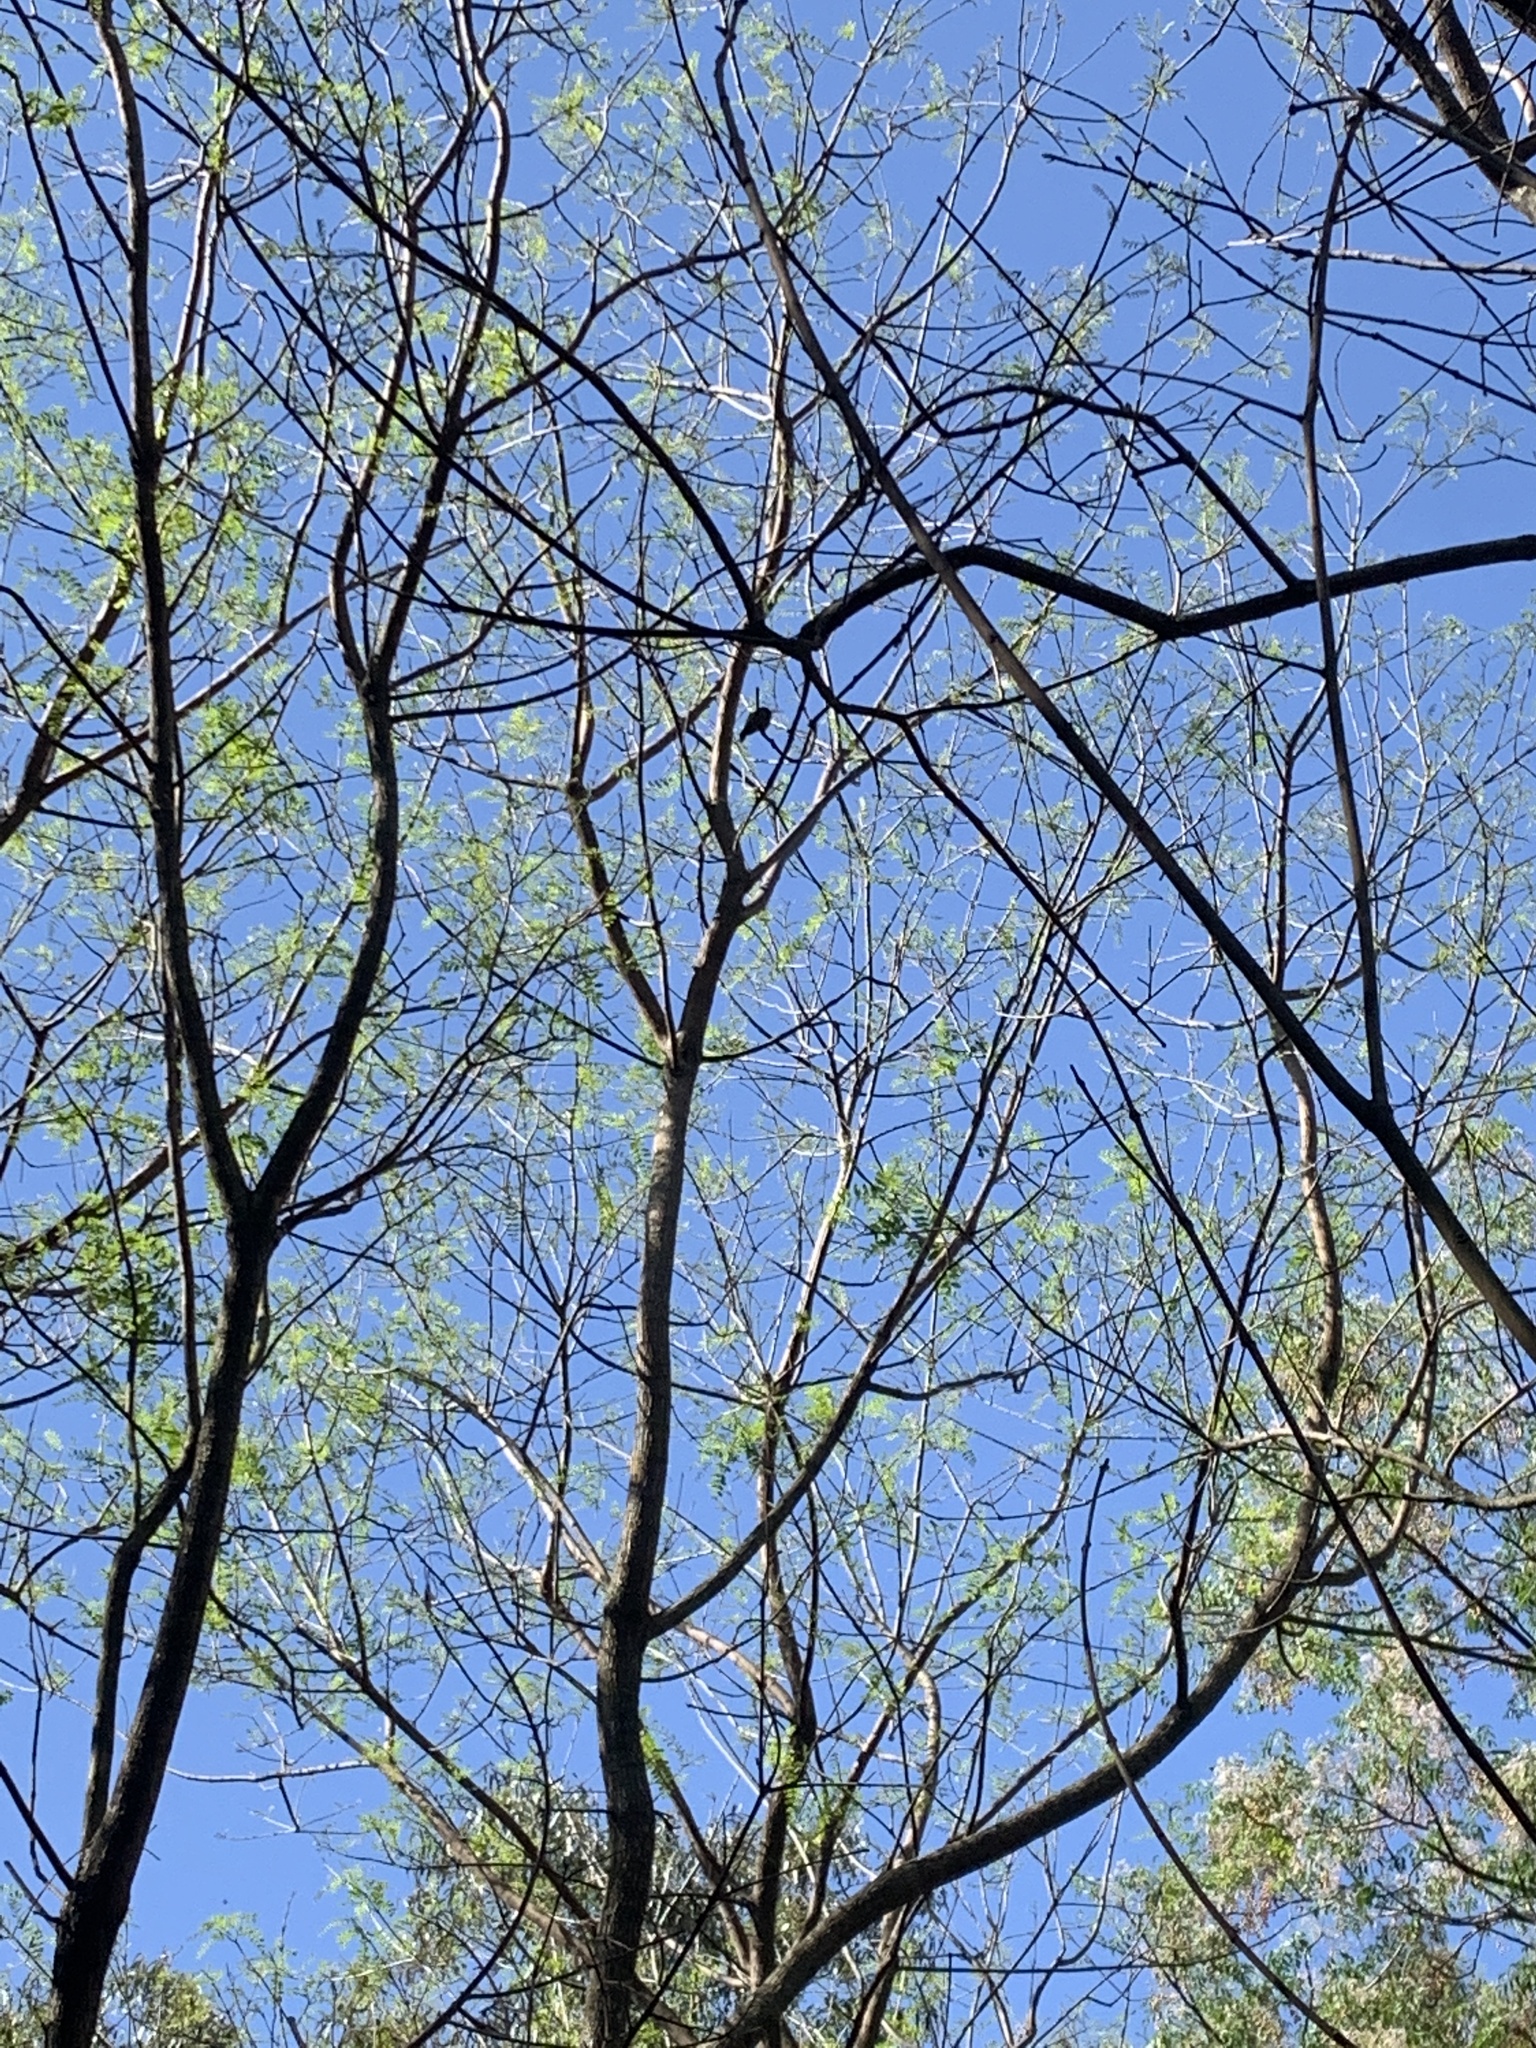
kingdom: Animalia
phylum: Chordata
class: Aves
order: Apodiformes
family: Trochilidae
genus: Hylocharis
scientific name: Hylocharis chrysura
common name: Gilded sapphire
